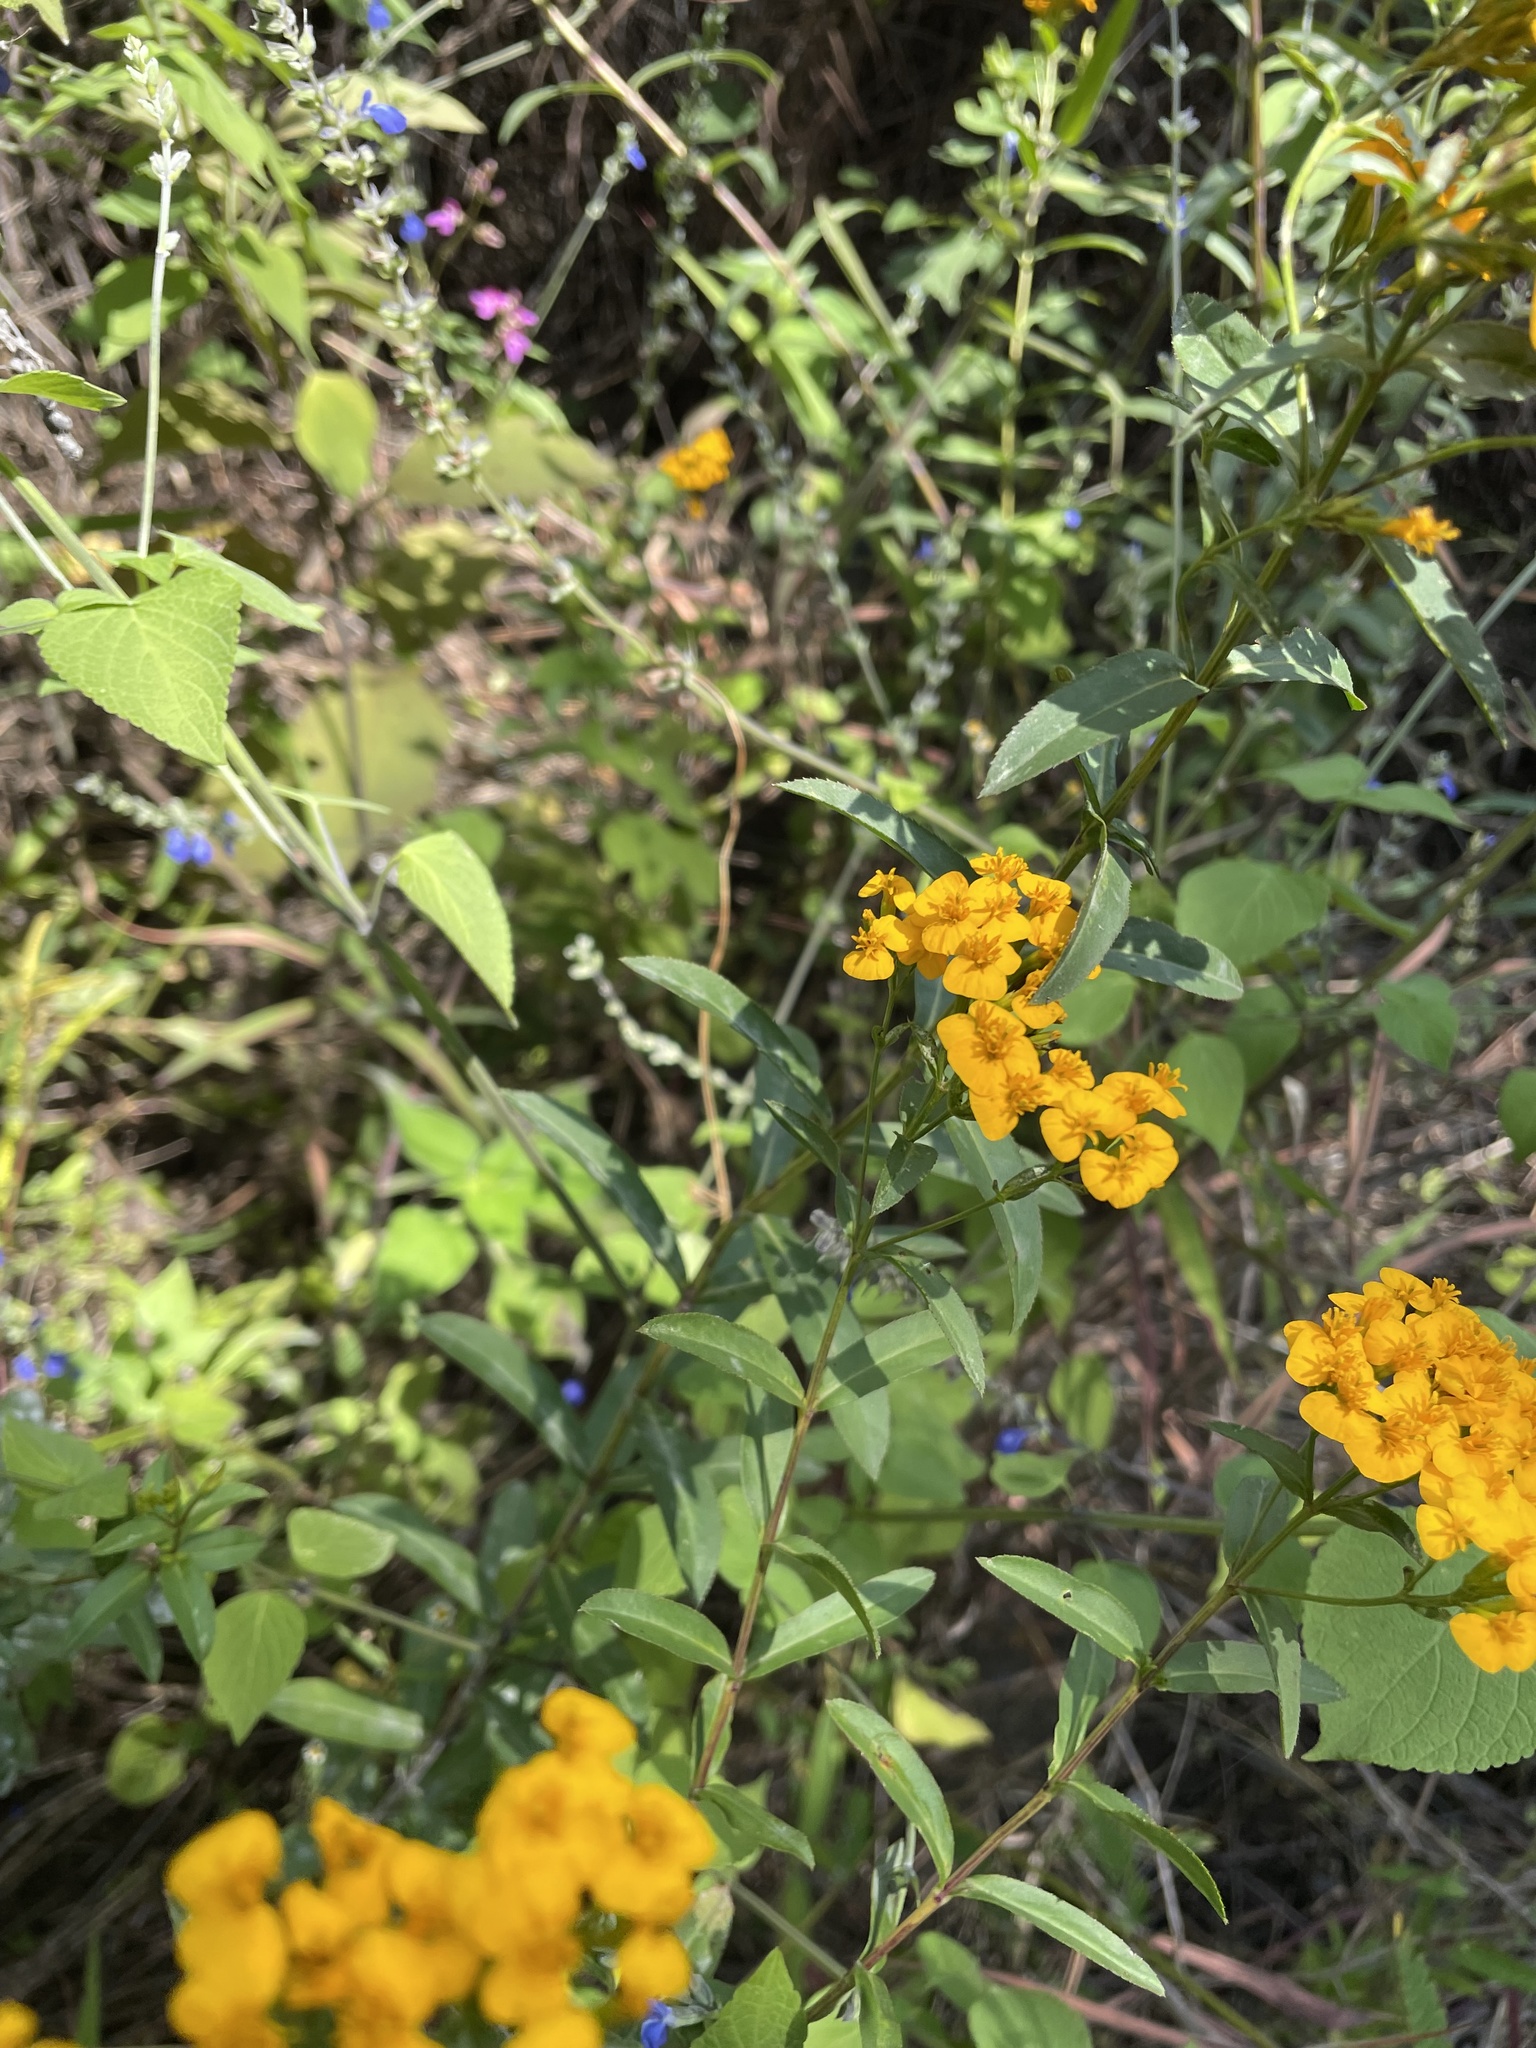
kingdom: Plantae
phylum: Tracheophyta
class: Magnoliopsida
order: Asterales
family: Asteraceae
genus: Tagetes
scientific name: Tagetes lucida
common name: Sweetscented marigold
